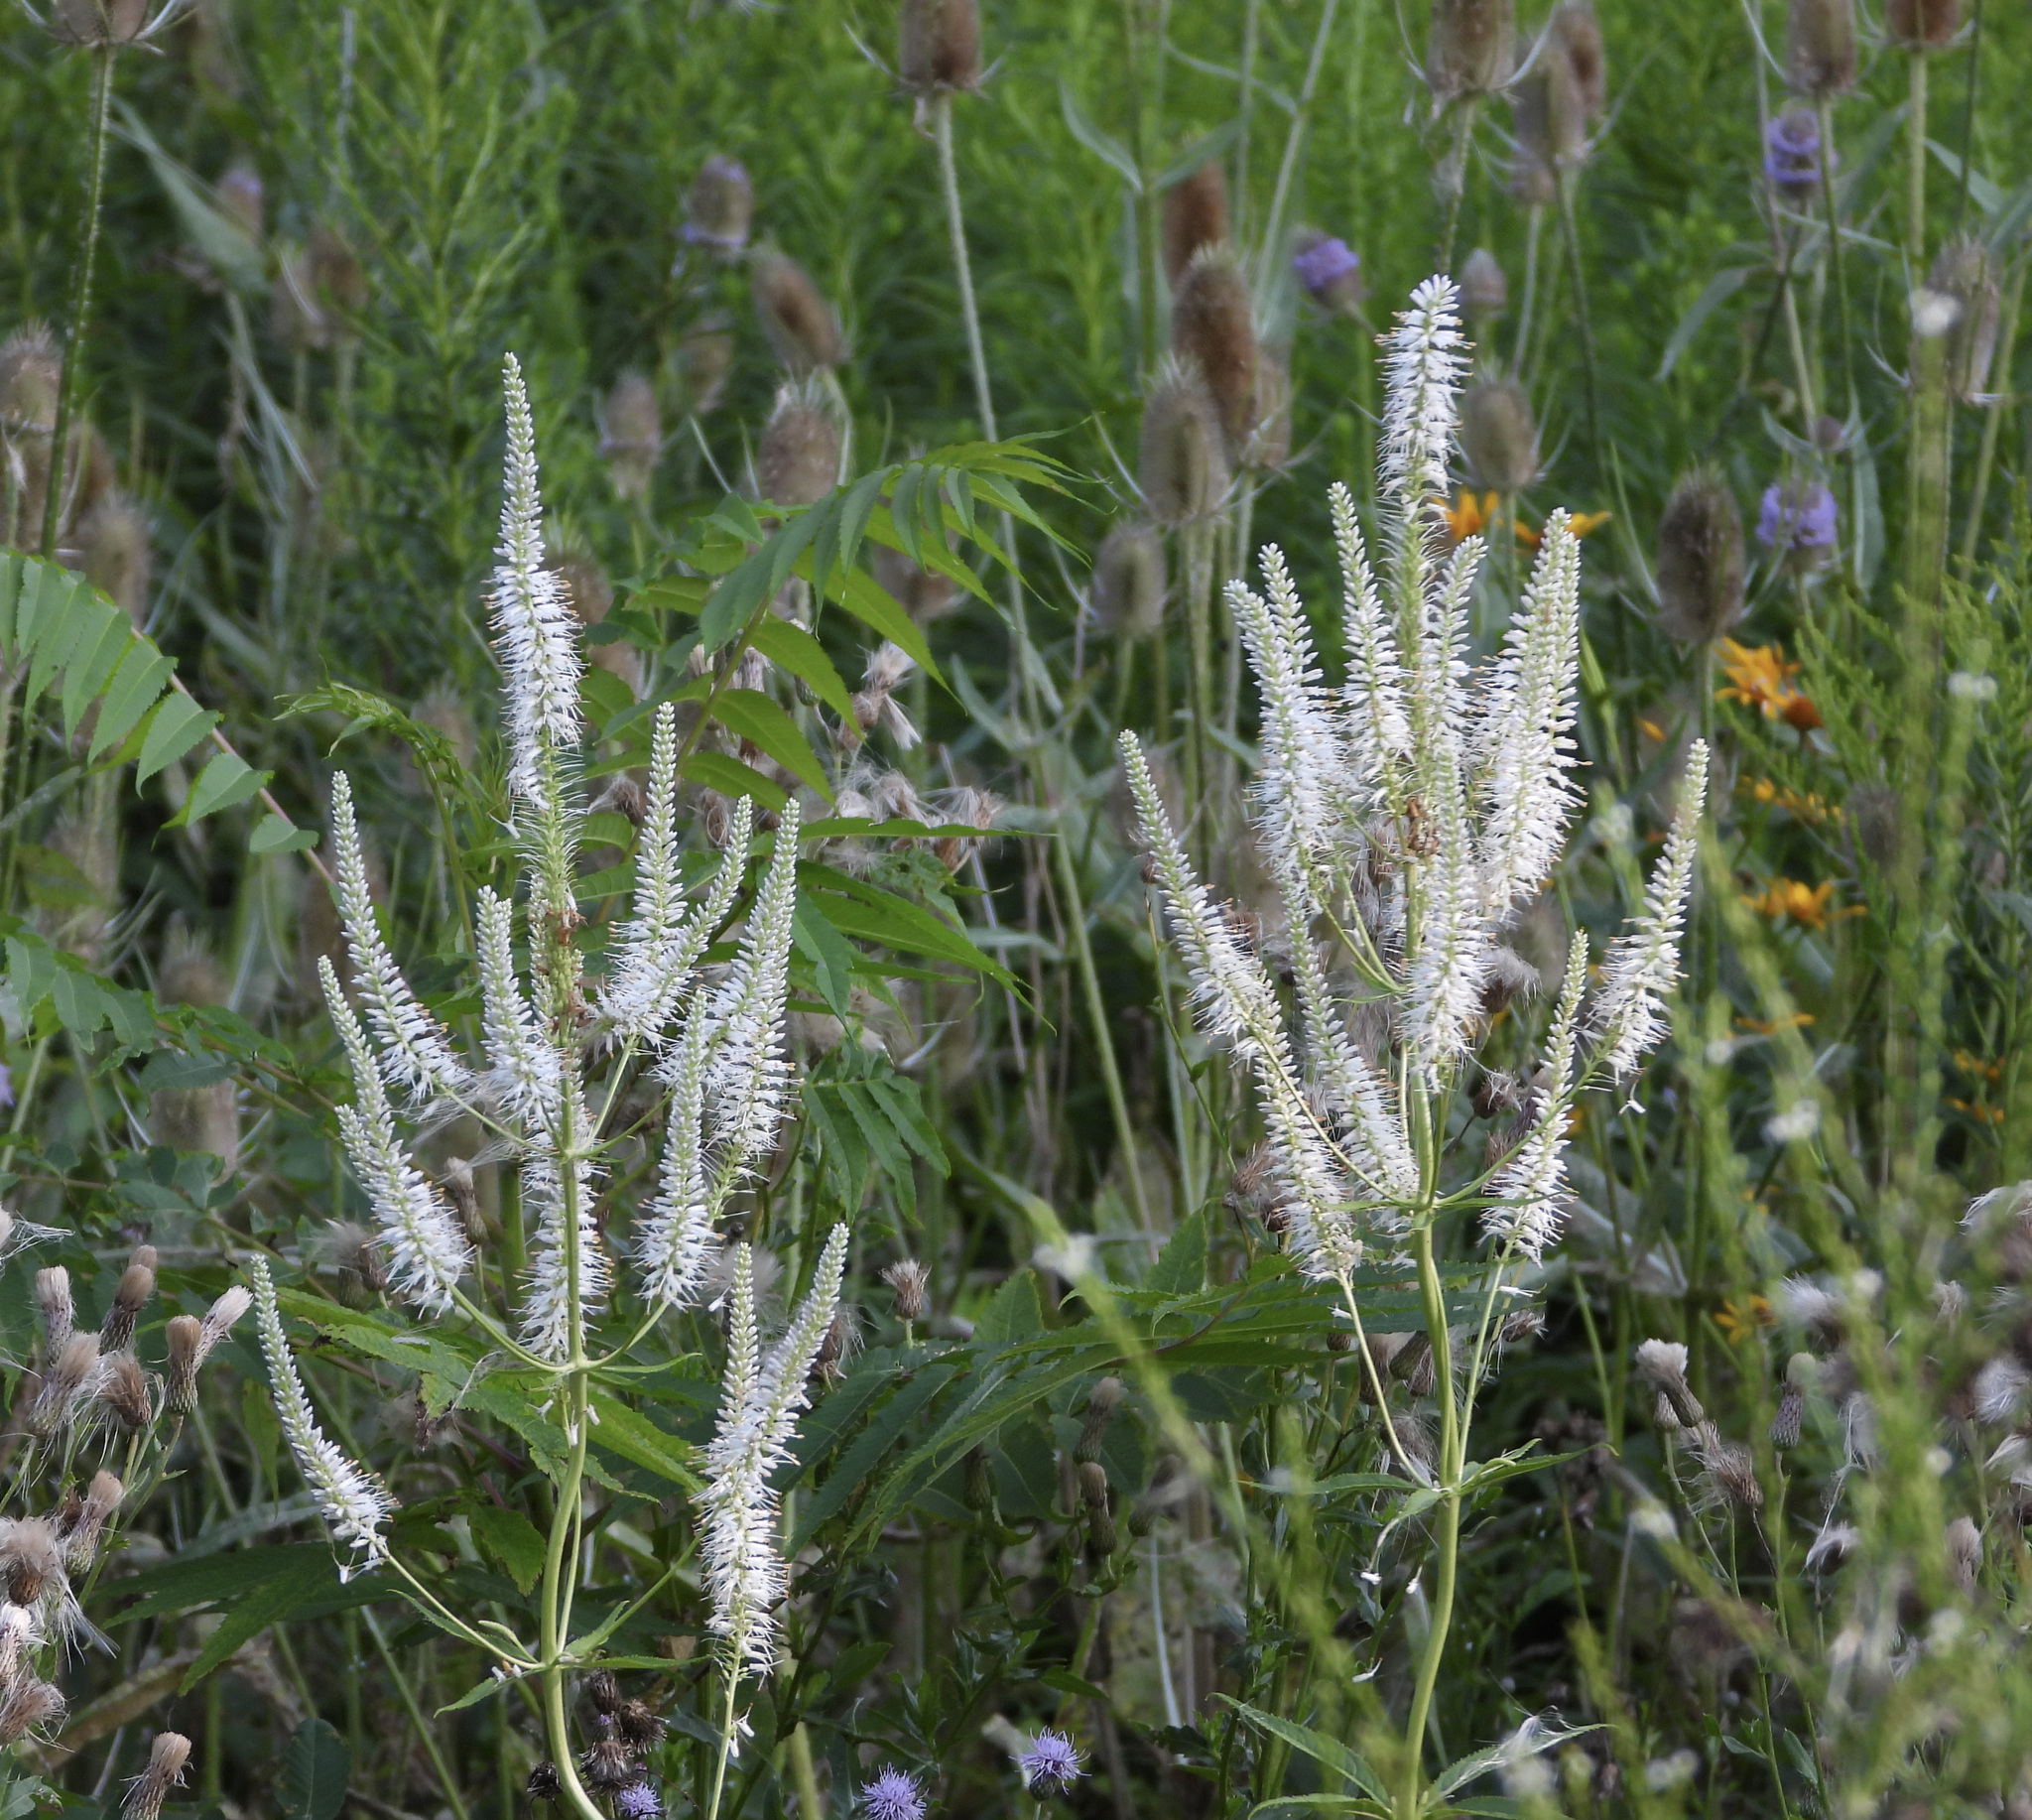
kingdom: Plantae
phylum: Tracheophyta
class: Magnoliopsida
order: Lamiales
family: Plantaginaceae
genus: Veronicastrum
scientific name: Veronicastrum virginicum
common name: Blackroot
